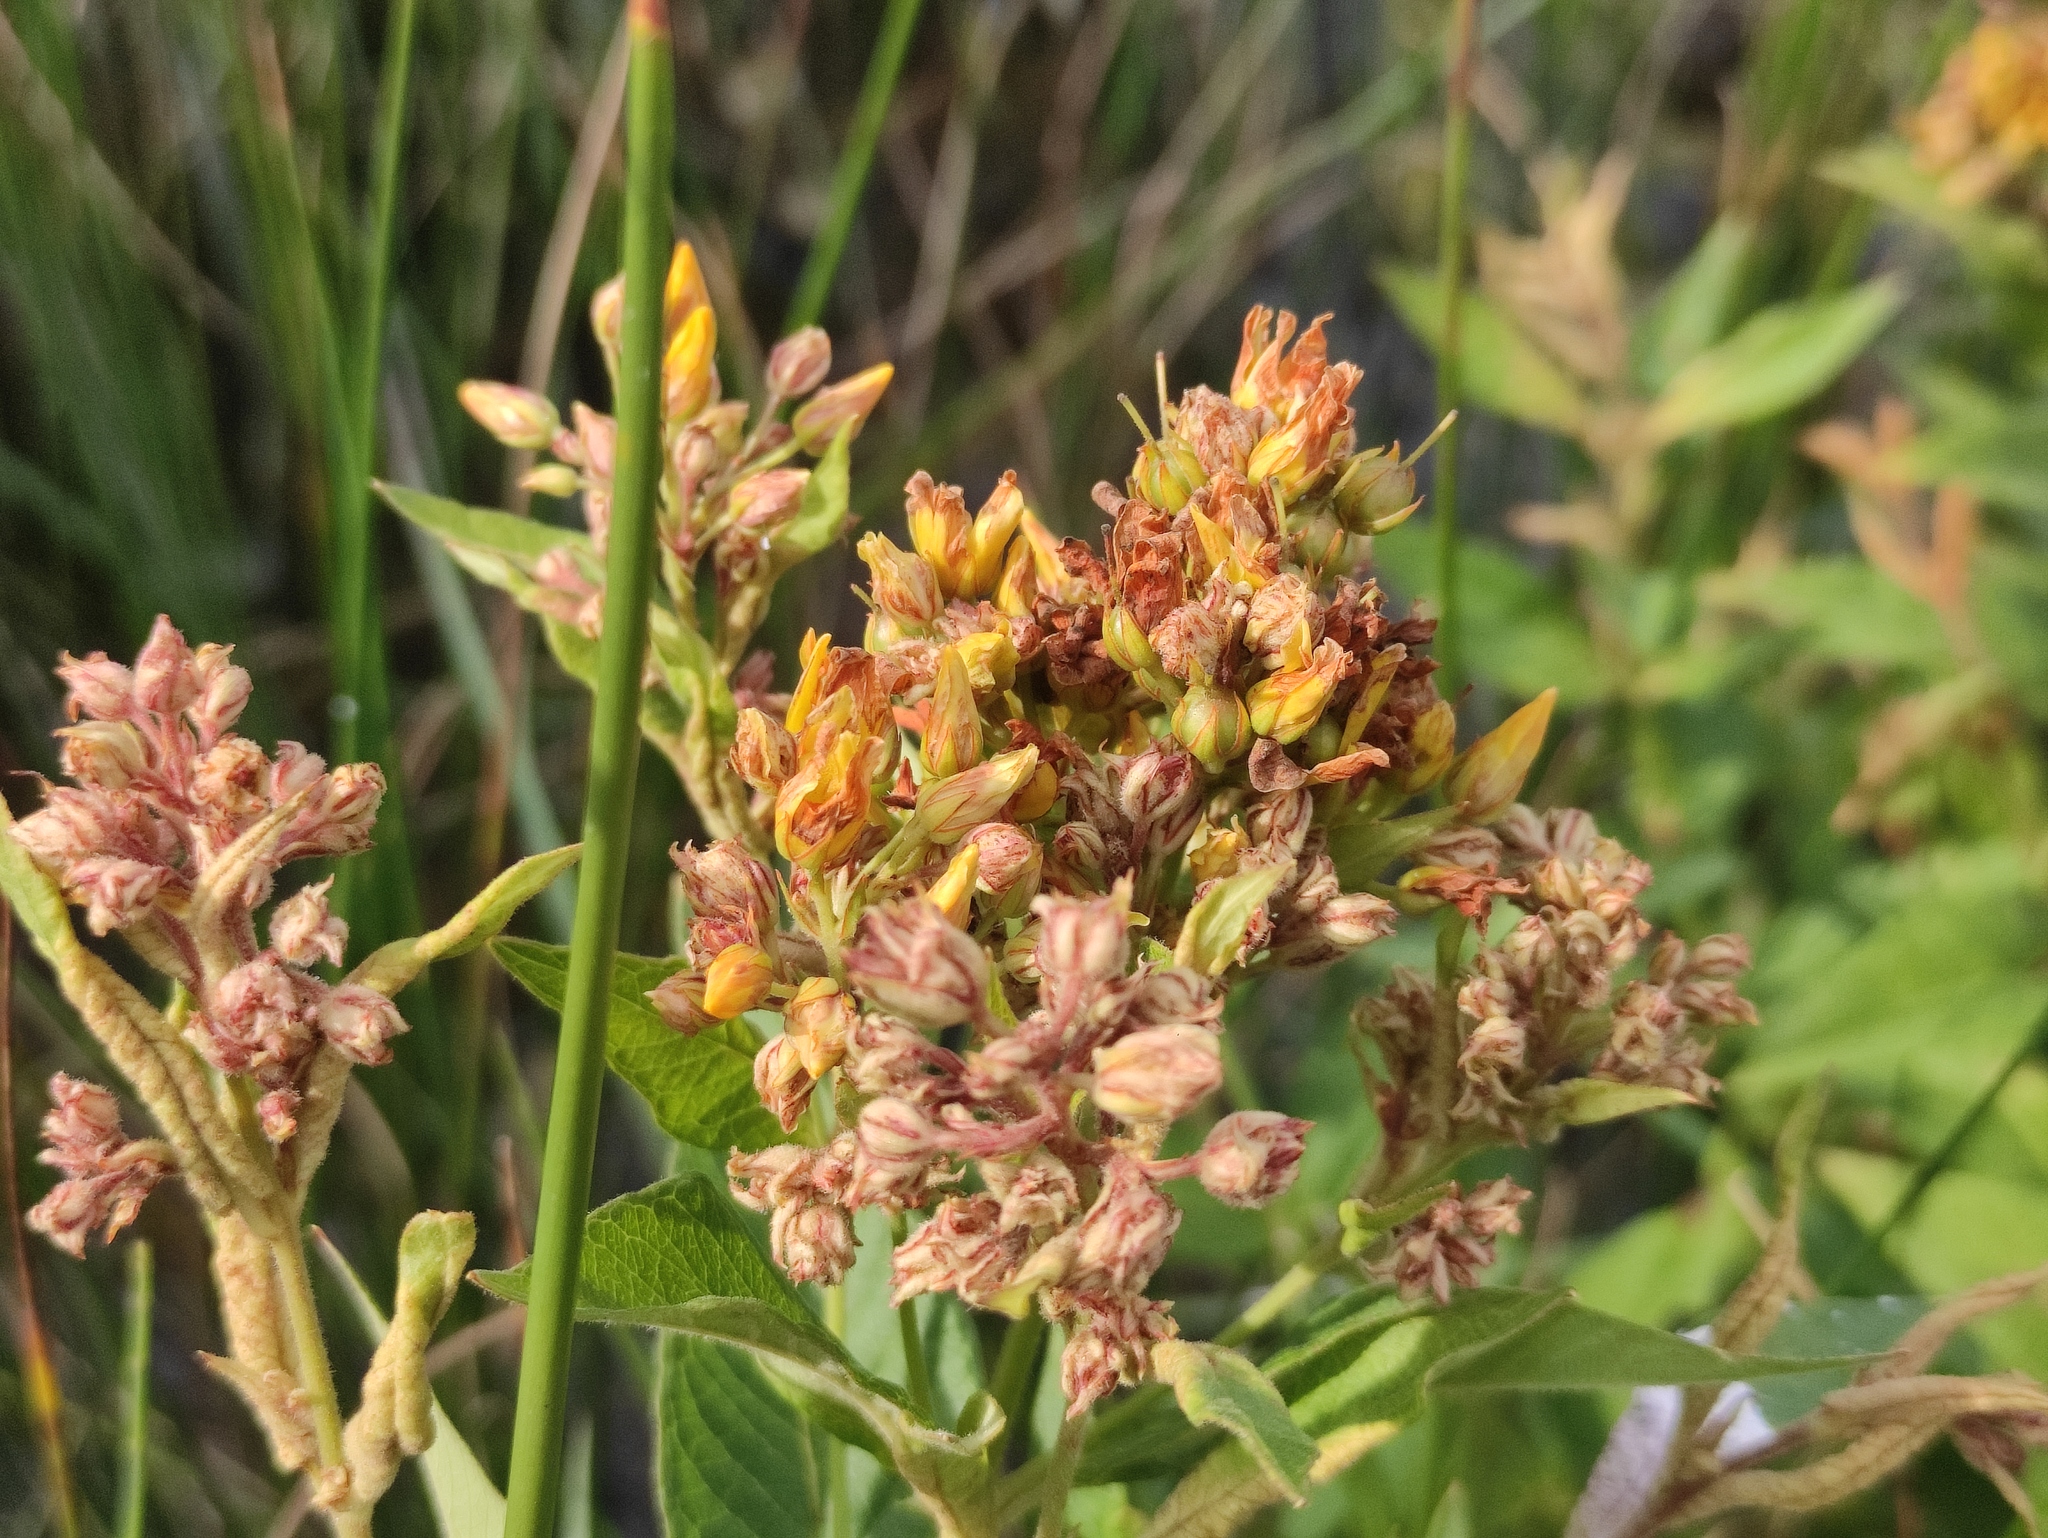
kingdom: Plantae
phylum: Tracheophyta
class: Magnoliopsida
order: Ericales
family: Primulaceae
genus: Lysimachia
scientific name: Lysimachia vulgaris
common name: Yellow loosestrife
